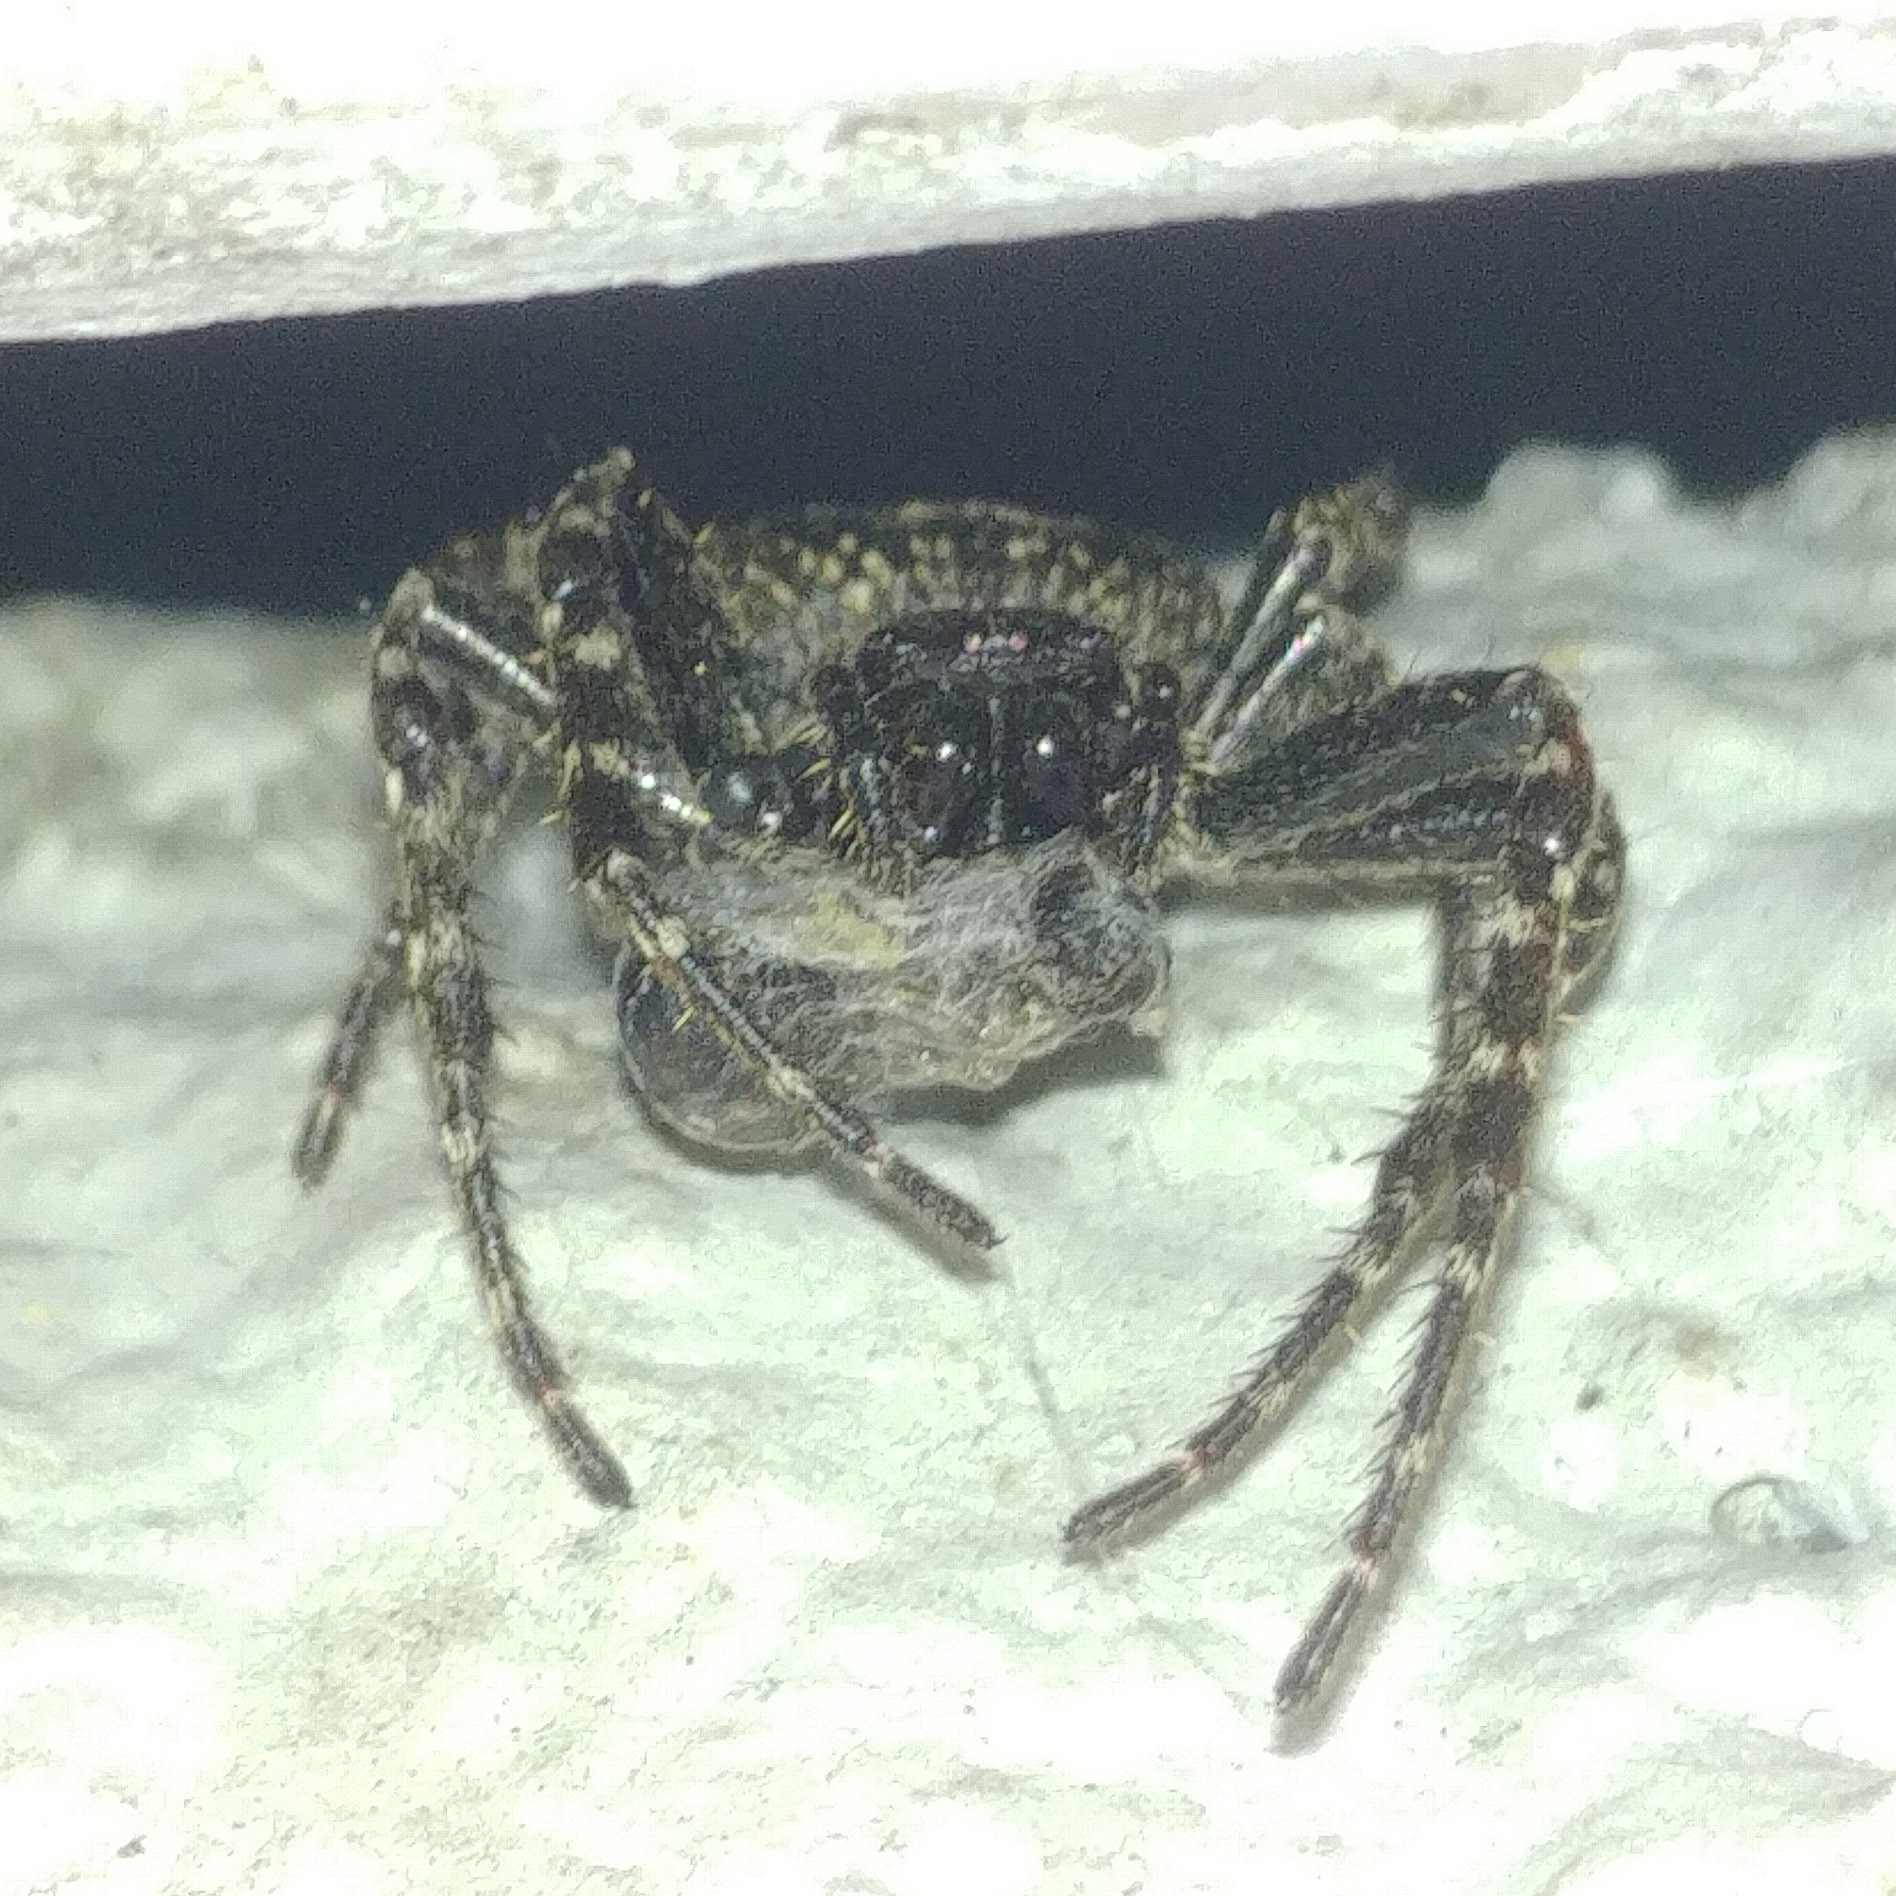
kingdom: Animalia
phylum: Arthropoda
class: Arachnida
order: Araneae
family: Araneidae
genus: Nuctenea
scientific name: Nuctenea umbratica
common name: Toad spider
